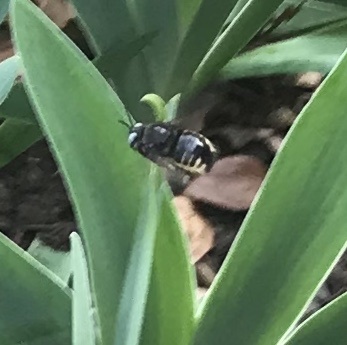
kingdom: Animalia
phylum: Arthropoda
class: Insecta
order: Hymenoptera
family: Apidae
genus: Xylocopa
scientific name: Xylocopa tabaniformis
